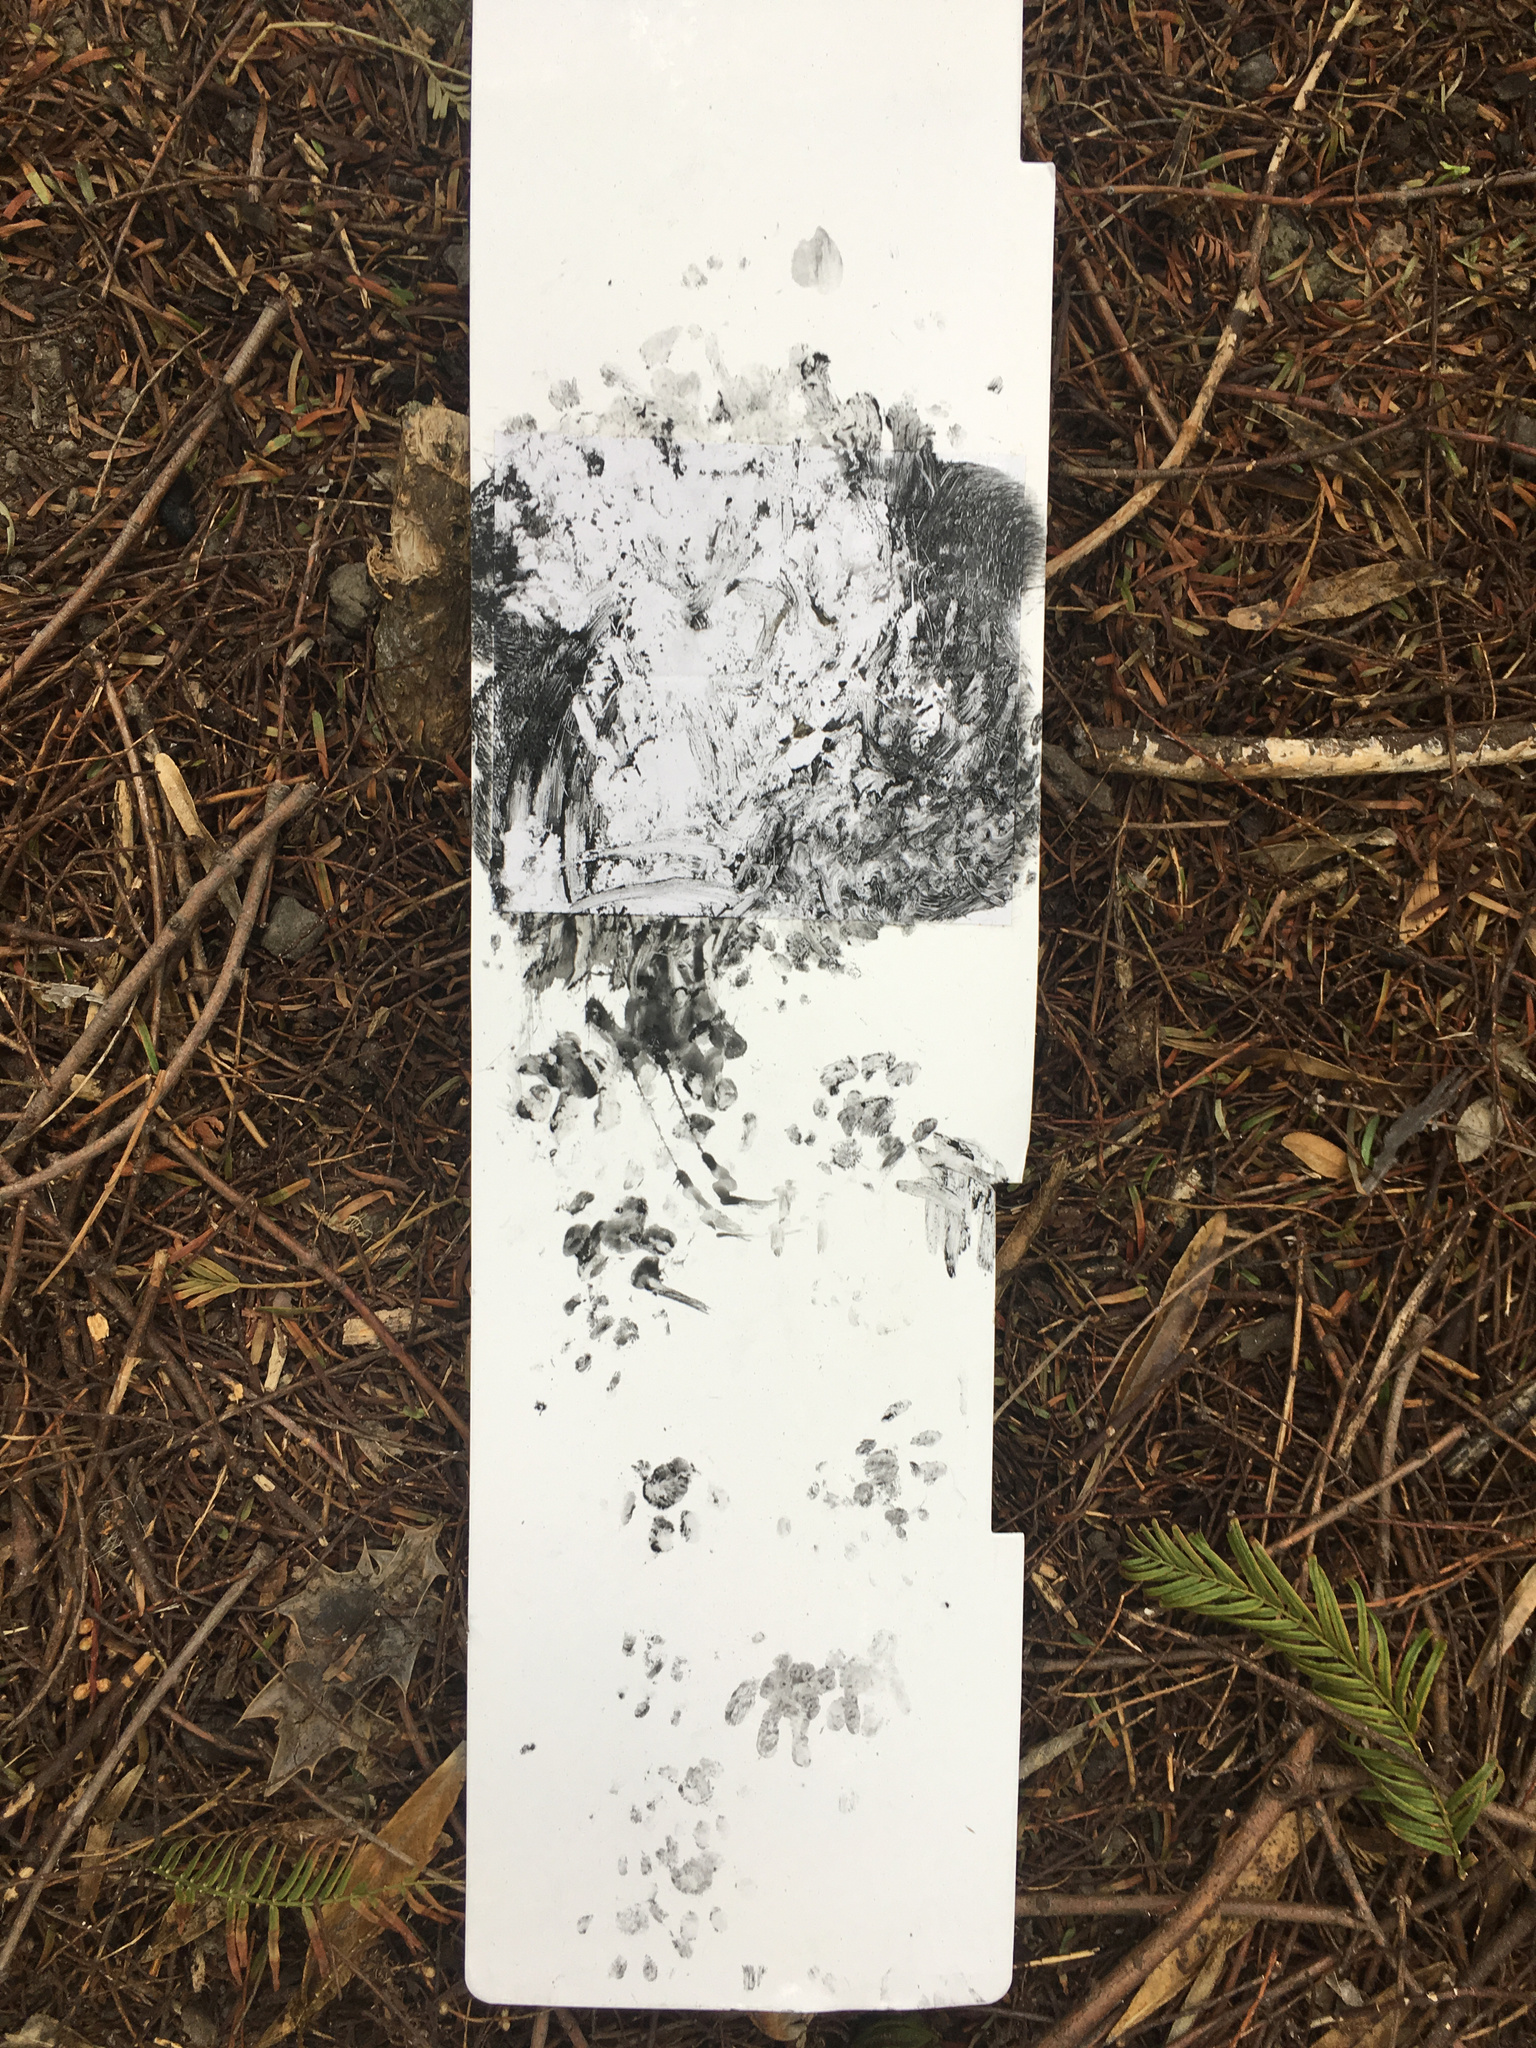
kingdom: Animalia
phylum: Chordata
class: Mammalia
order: Erinaceomorpha
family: Erinaceidae
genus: Erinaceus
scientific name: Erinaceus europaeus
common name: West european hedgehog
